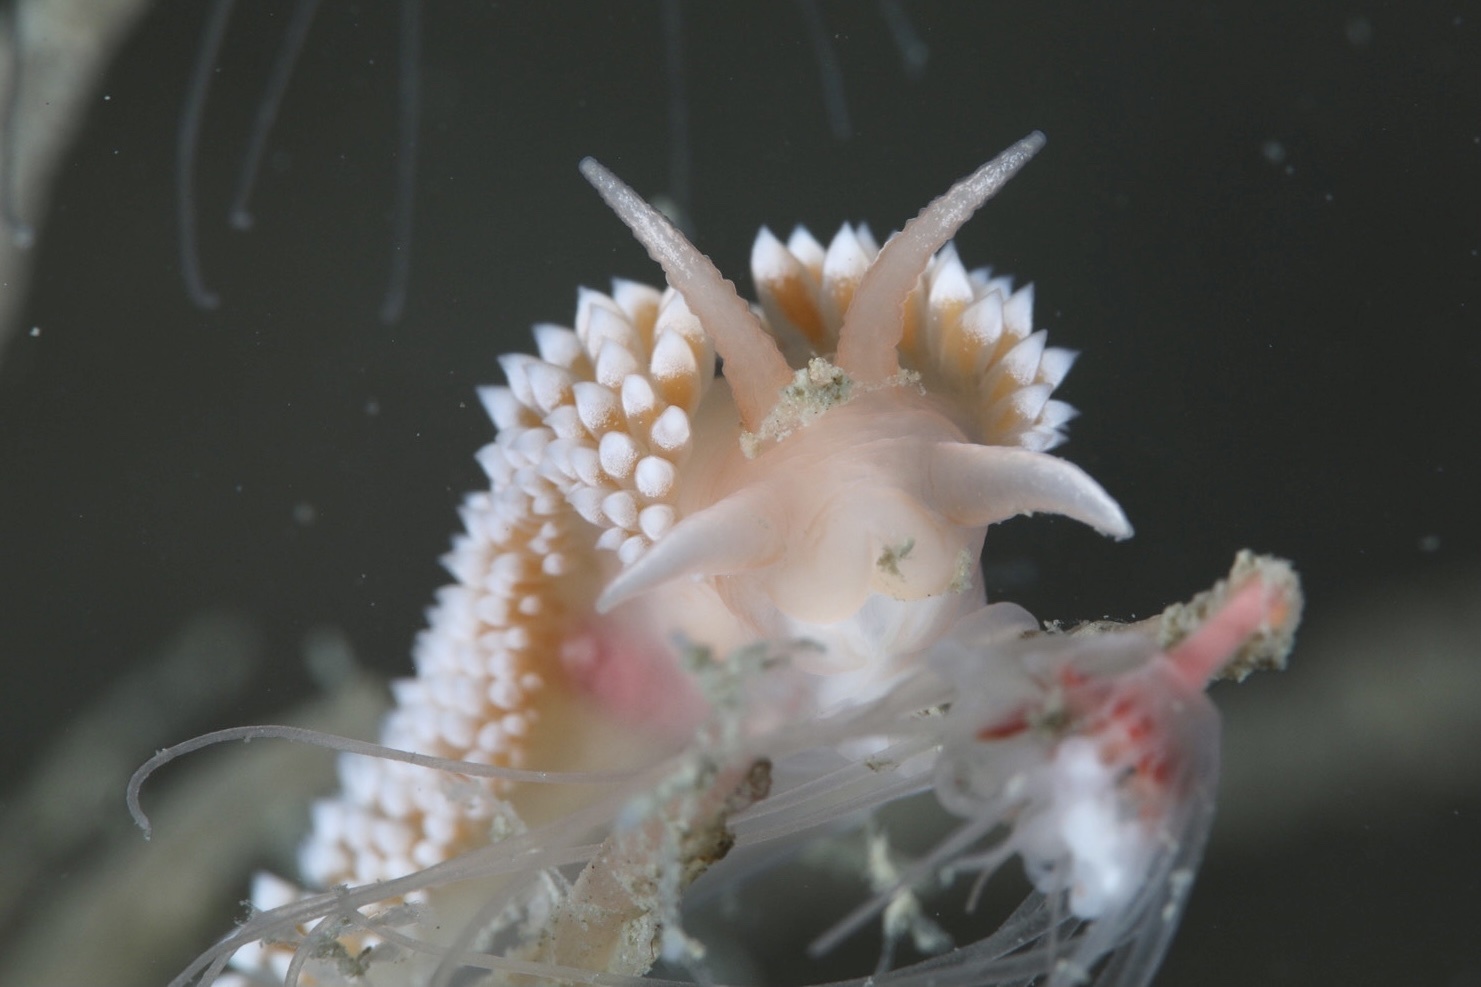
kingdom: Animalia
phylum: Mollusca
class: Gastropoda
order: Nudibranchia
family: Coryphellidae
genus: Coryphella
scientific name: Coryphella verrucosa
